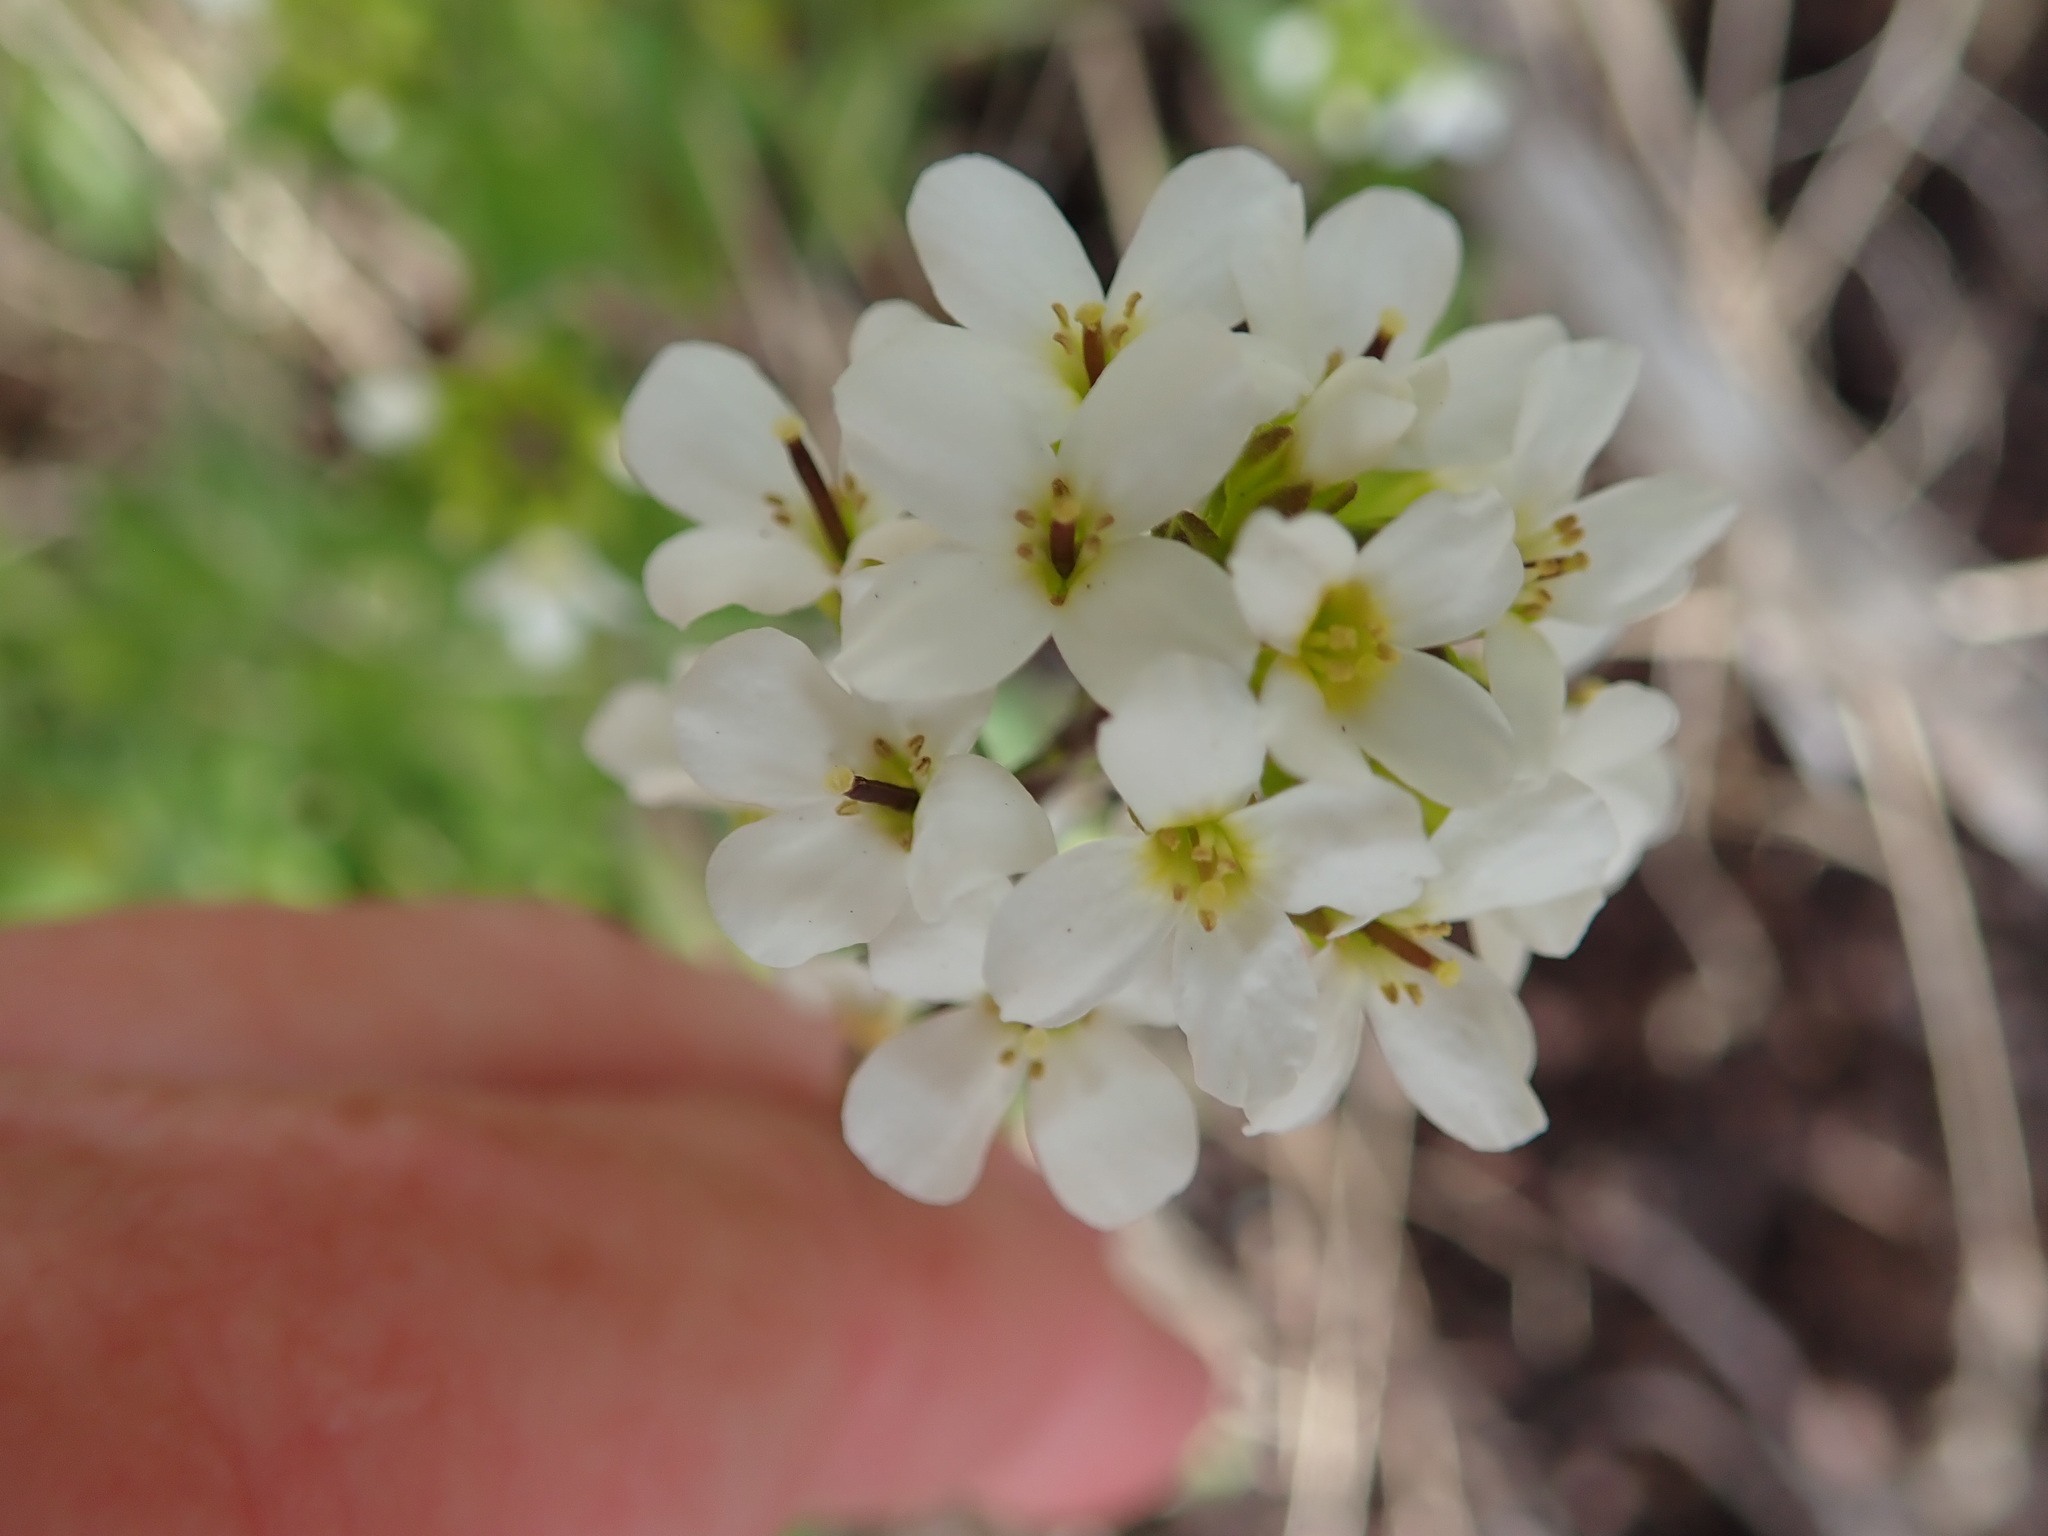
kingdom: Plantae
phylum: Tracheophyta
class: Magnoliopsida
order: Brassicales
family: Brassicaceae
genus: Arabis
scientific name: Arabis alpina
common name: Alpine rock-cress
